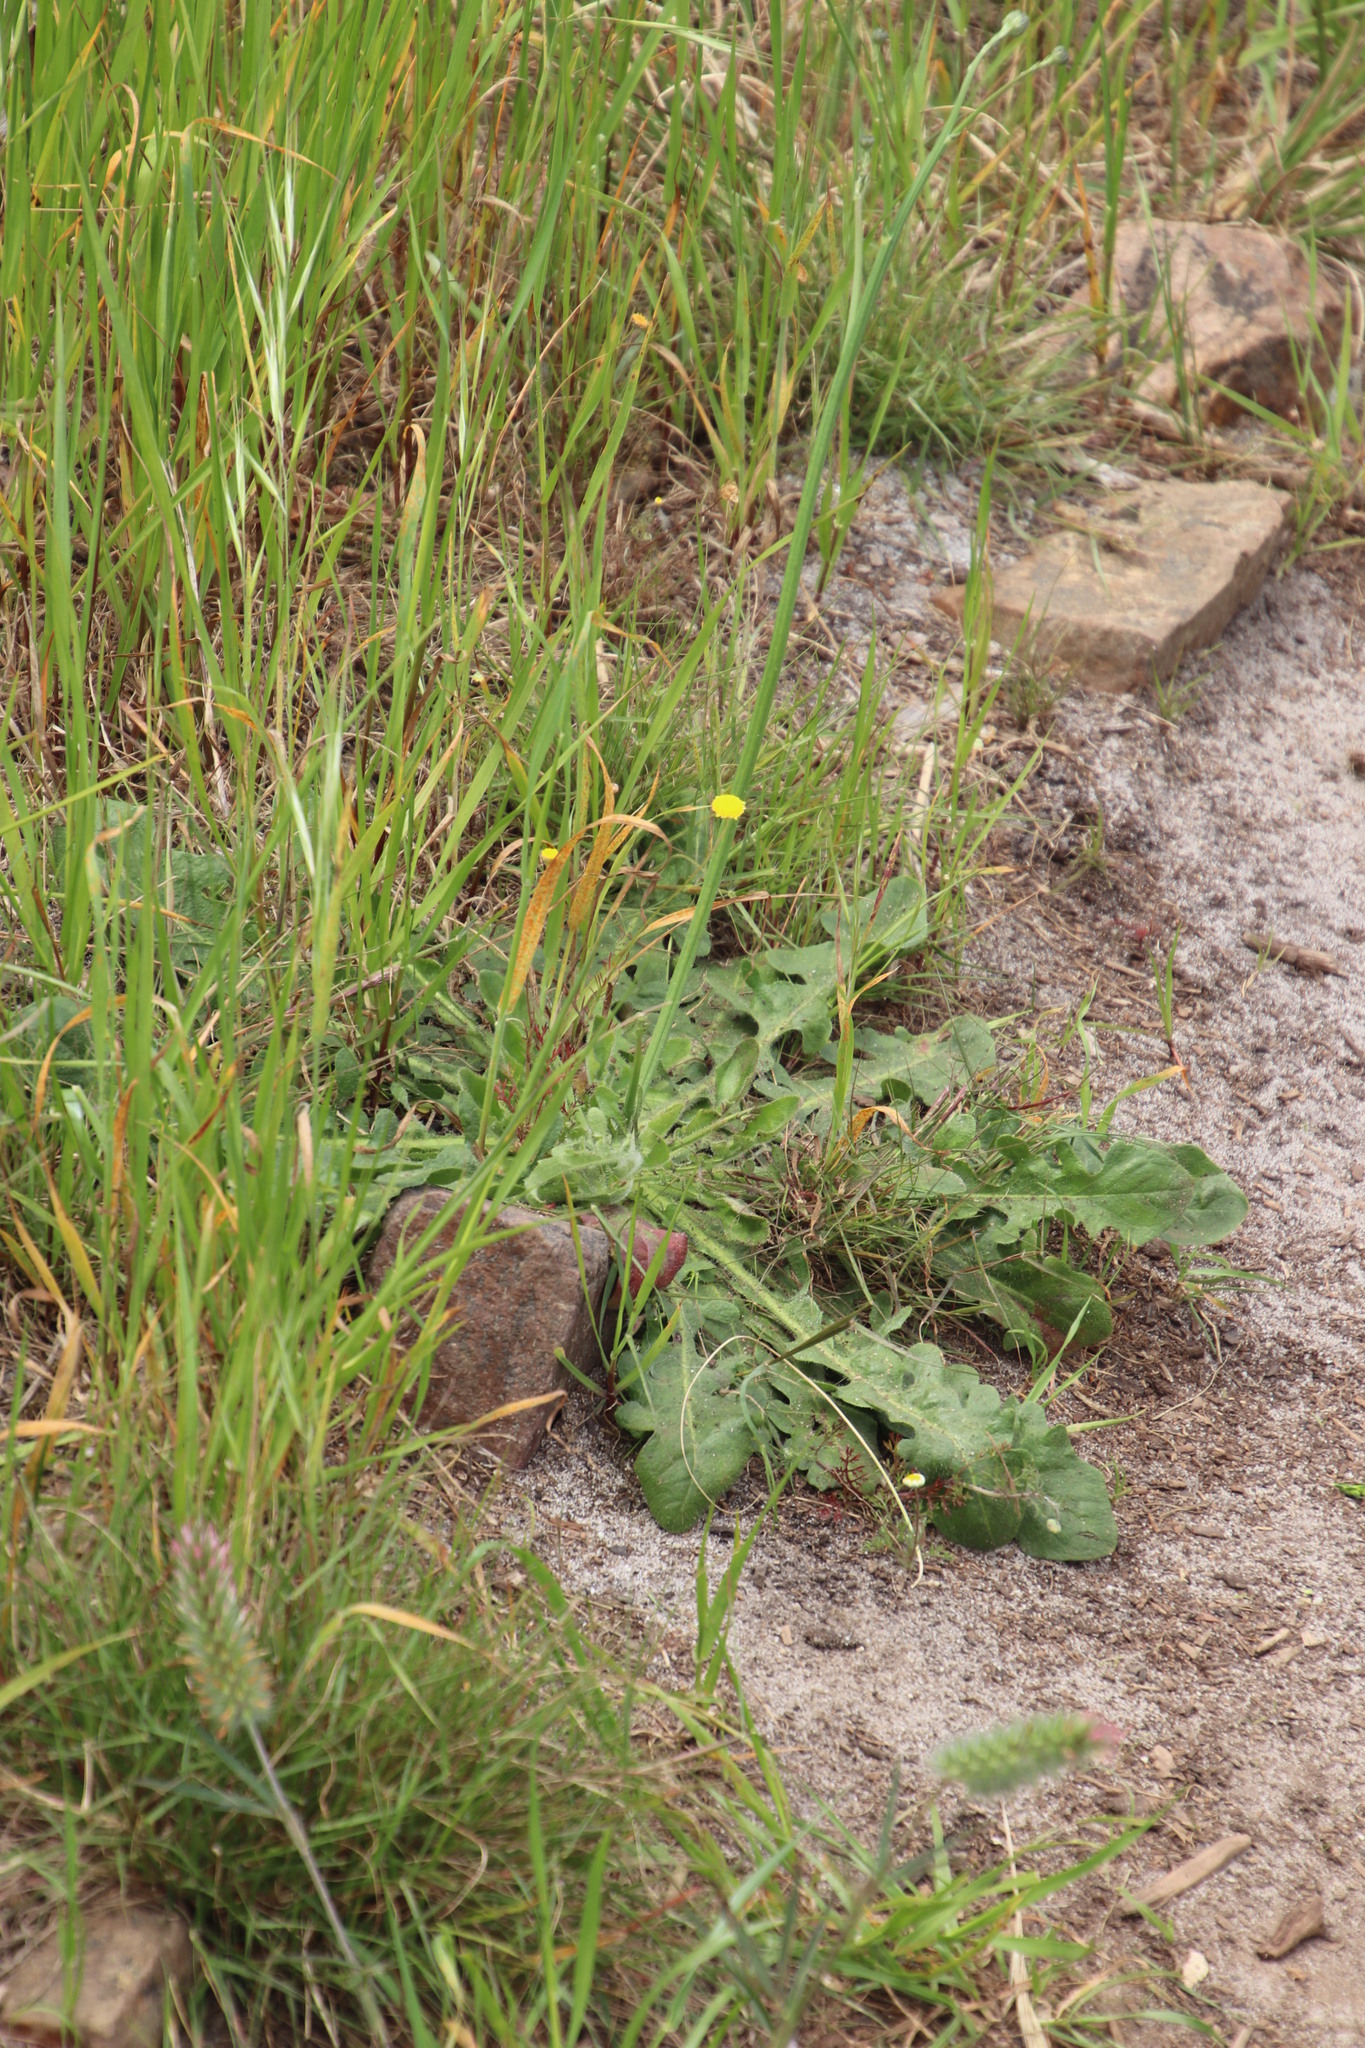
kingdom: Plantae
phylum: Tracheophyta
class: Magnoliopsida
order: Asterales
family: Asteraceae
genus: Hypochaeris
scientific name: Hypochaeris radicata
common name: Flatweed
